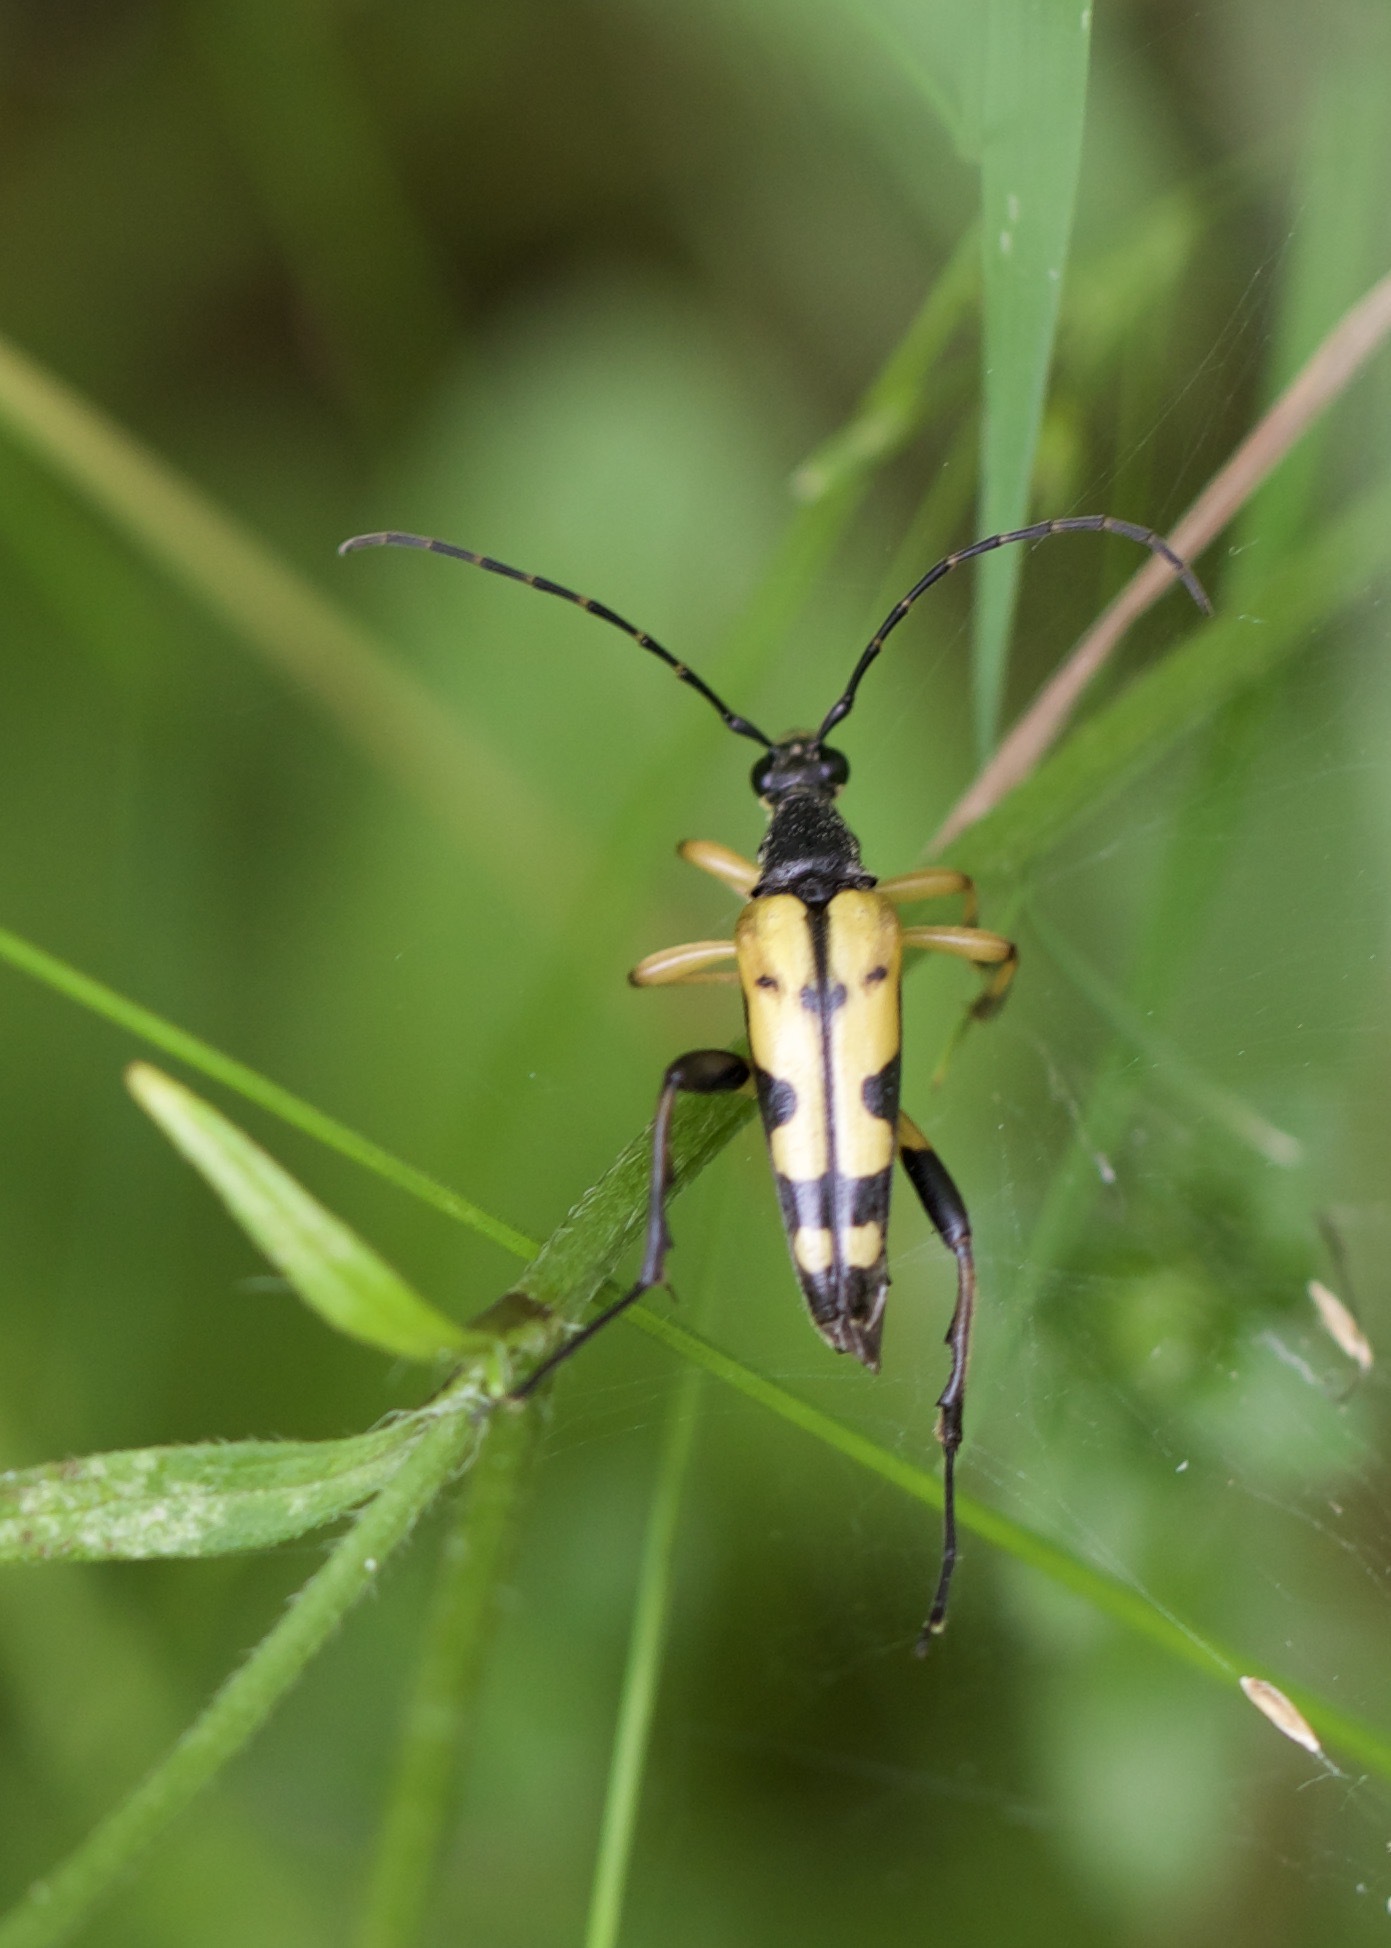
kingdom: Animalia
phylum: Arthropoda
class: Insecta
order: Coleoptera
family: Cerambycidae
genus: Rutpela
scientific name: Rutpela maculata
